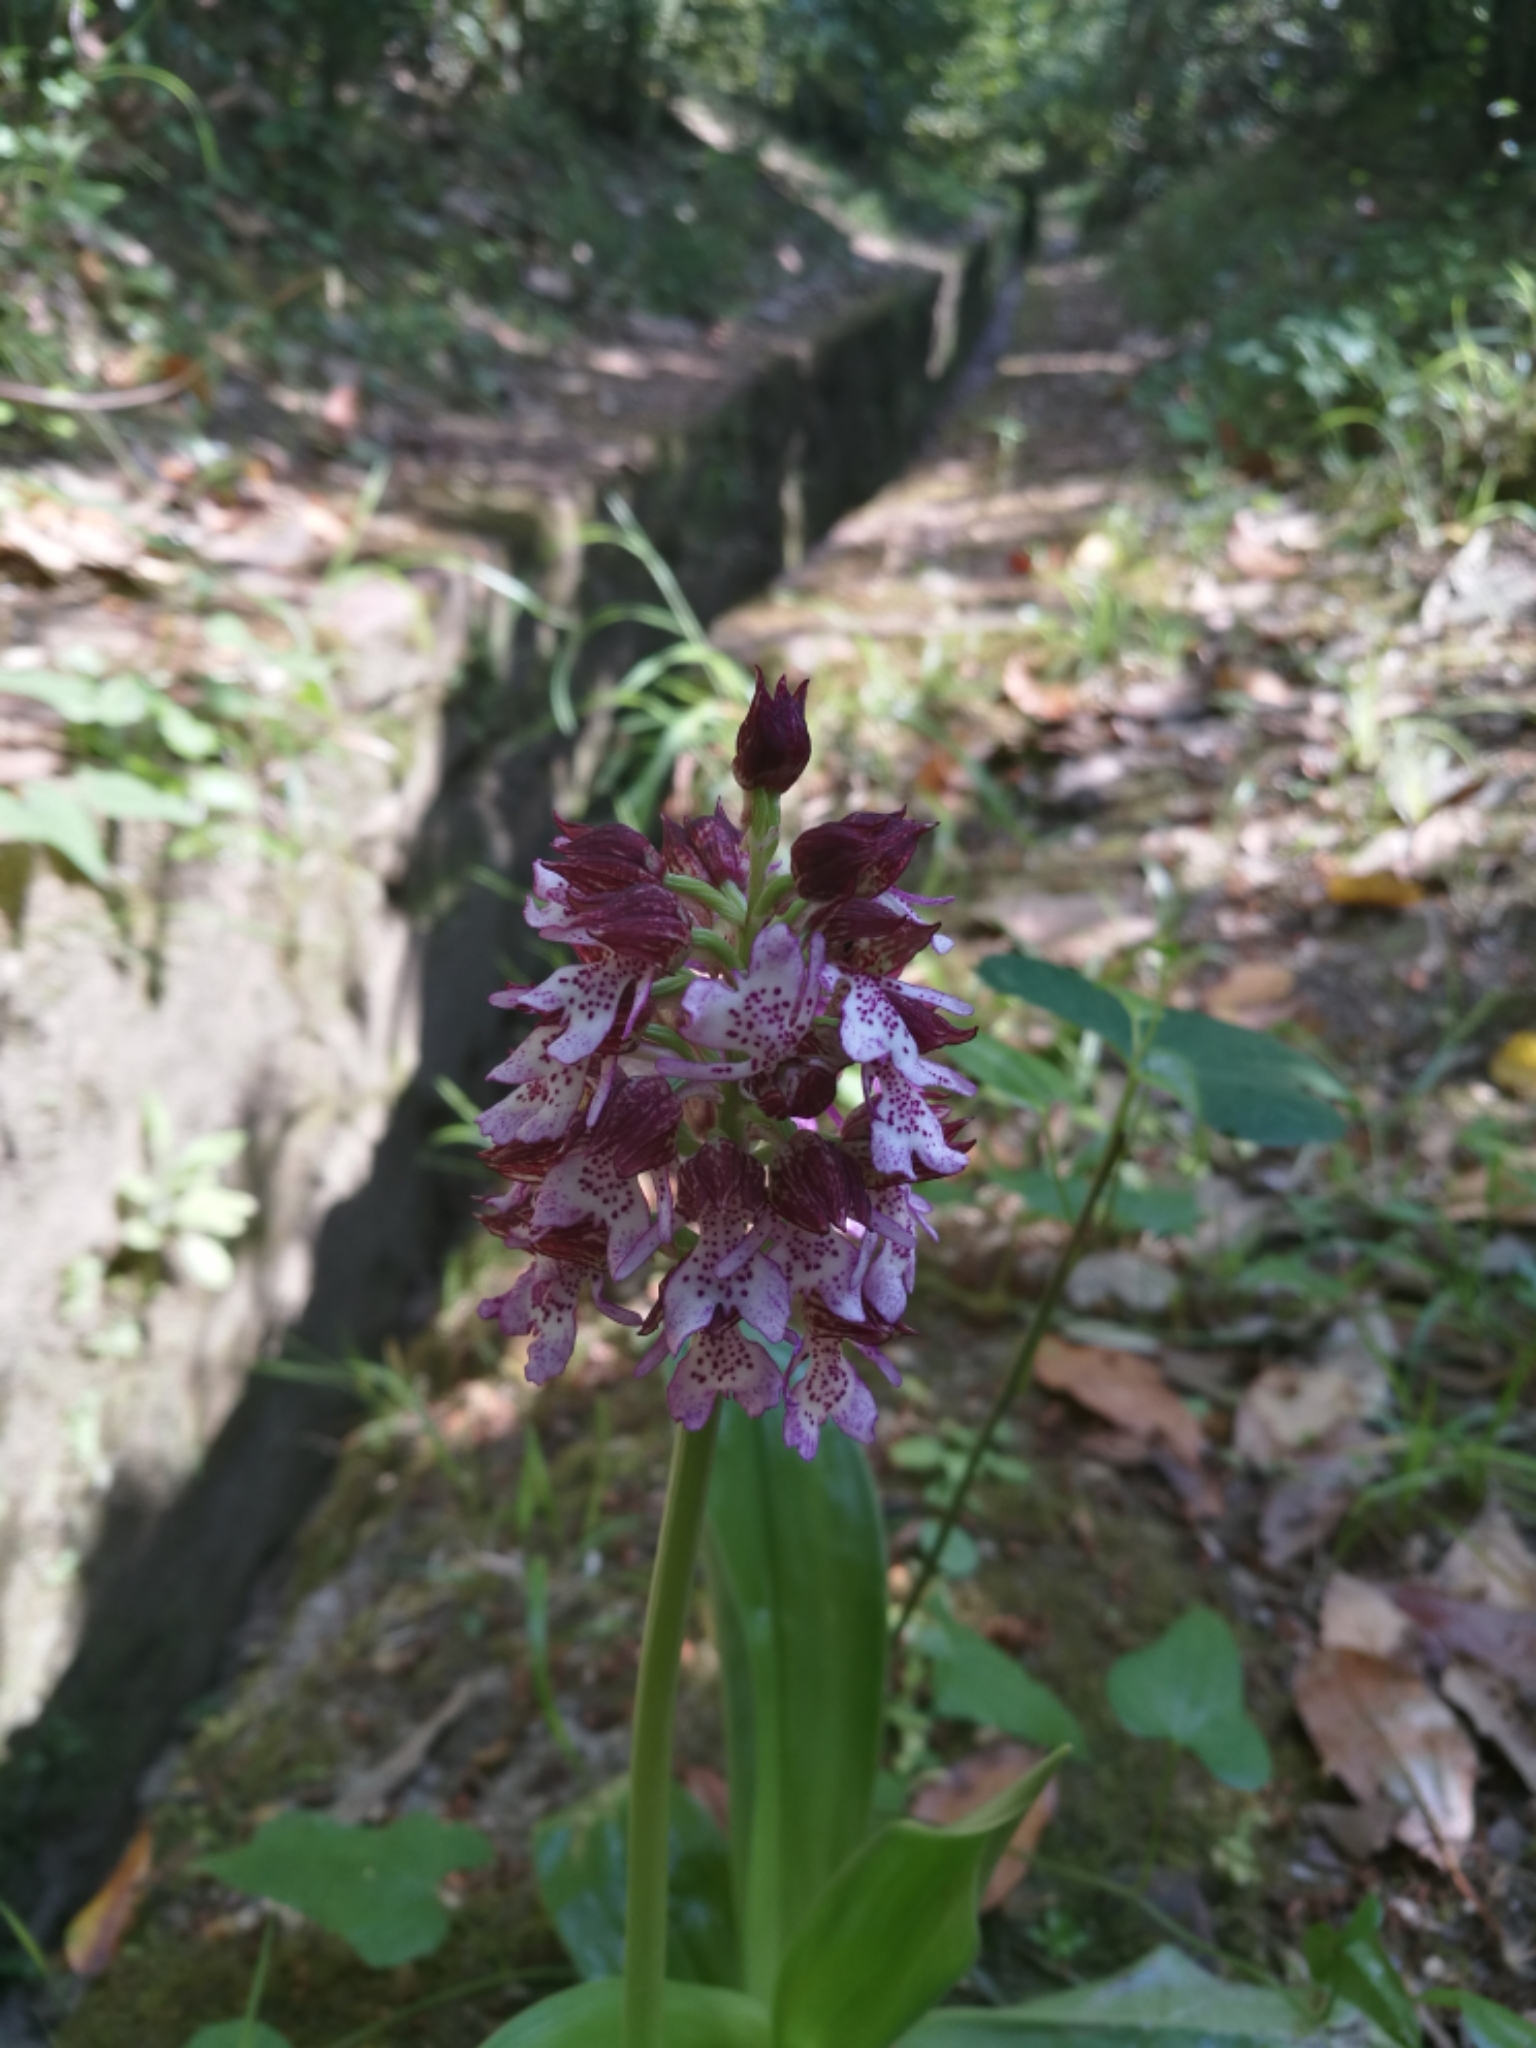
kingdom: Plantae
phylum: Tracheophyta
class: Liliopsida
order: Asparagales
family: Orchidaceae
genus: Orchis
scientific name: Orchis purpurea
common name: Lady orchid
